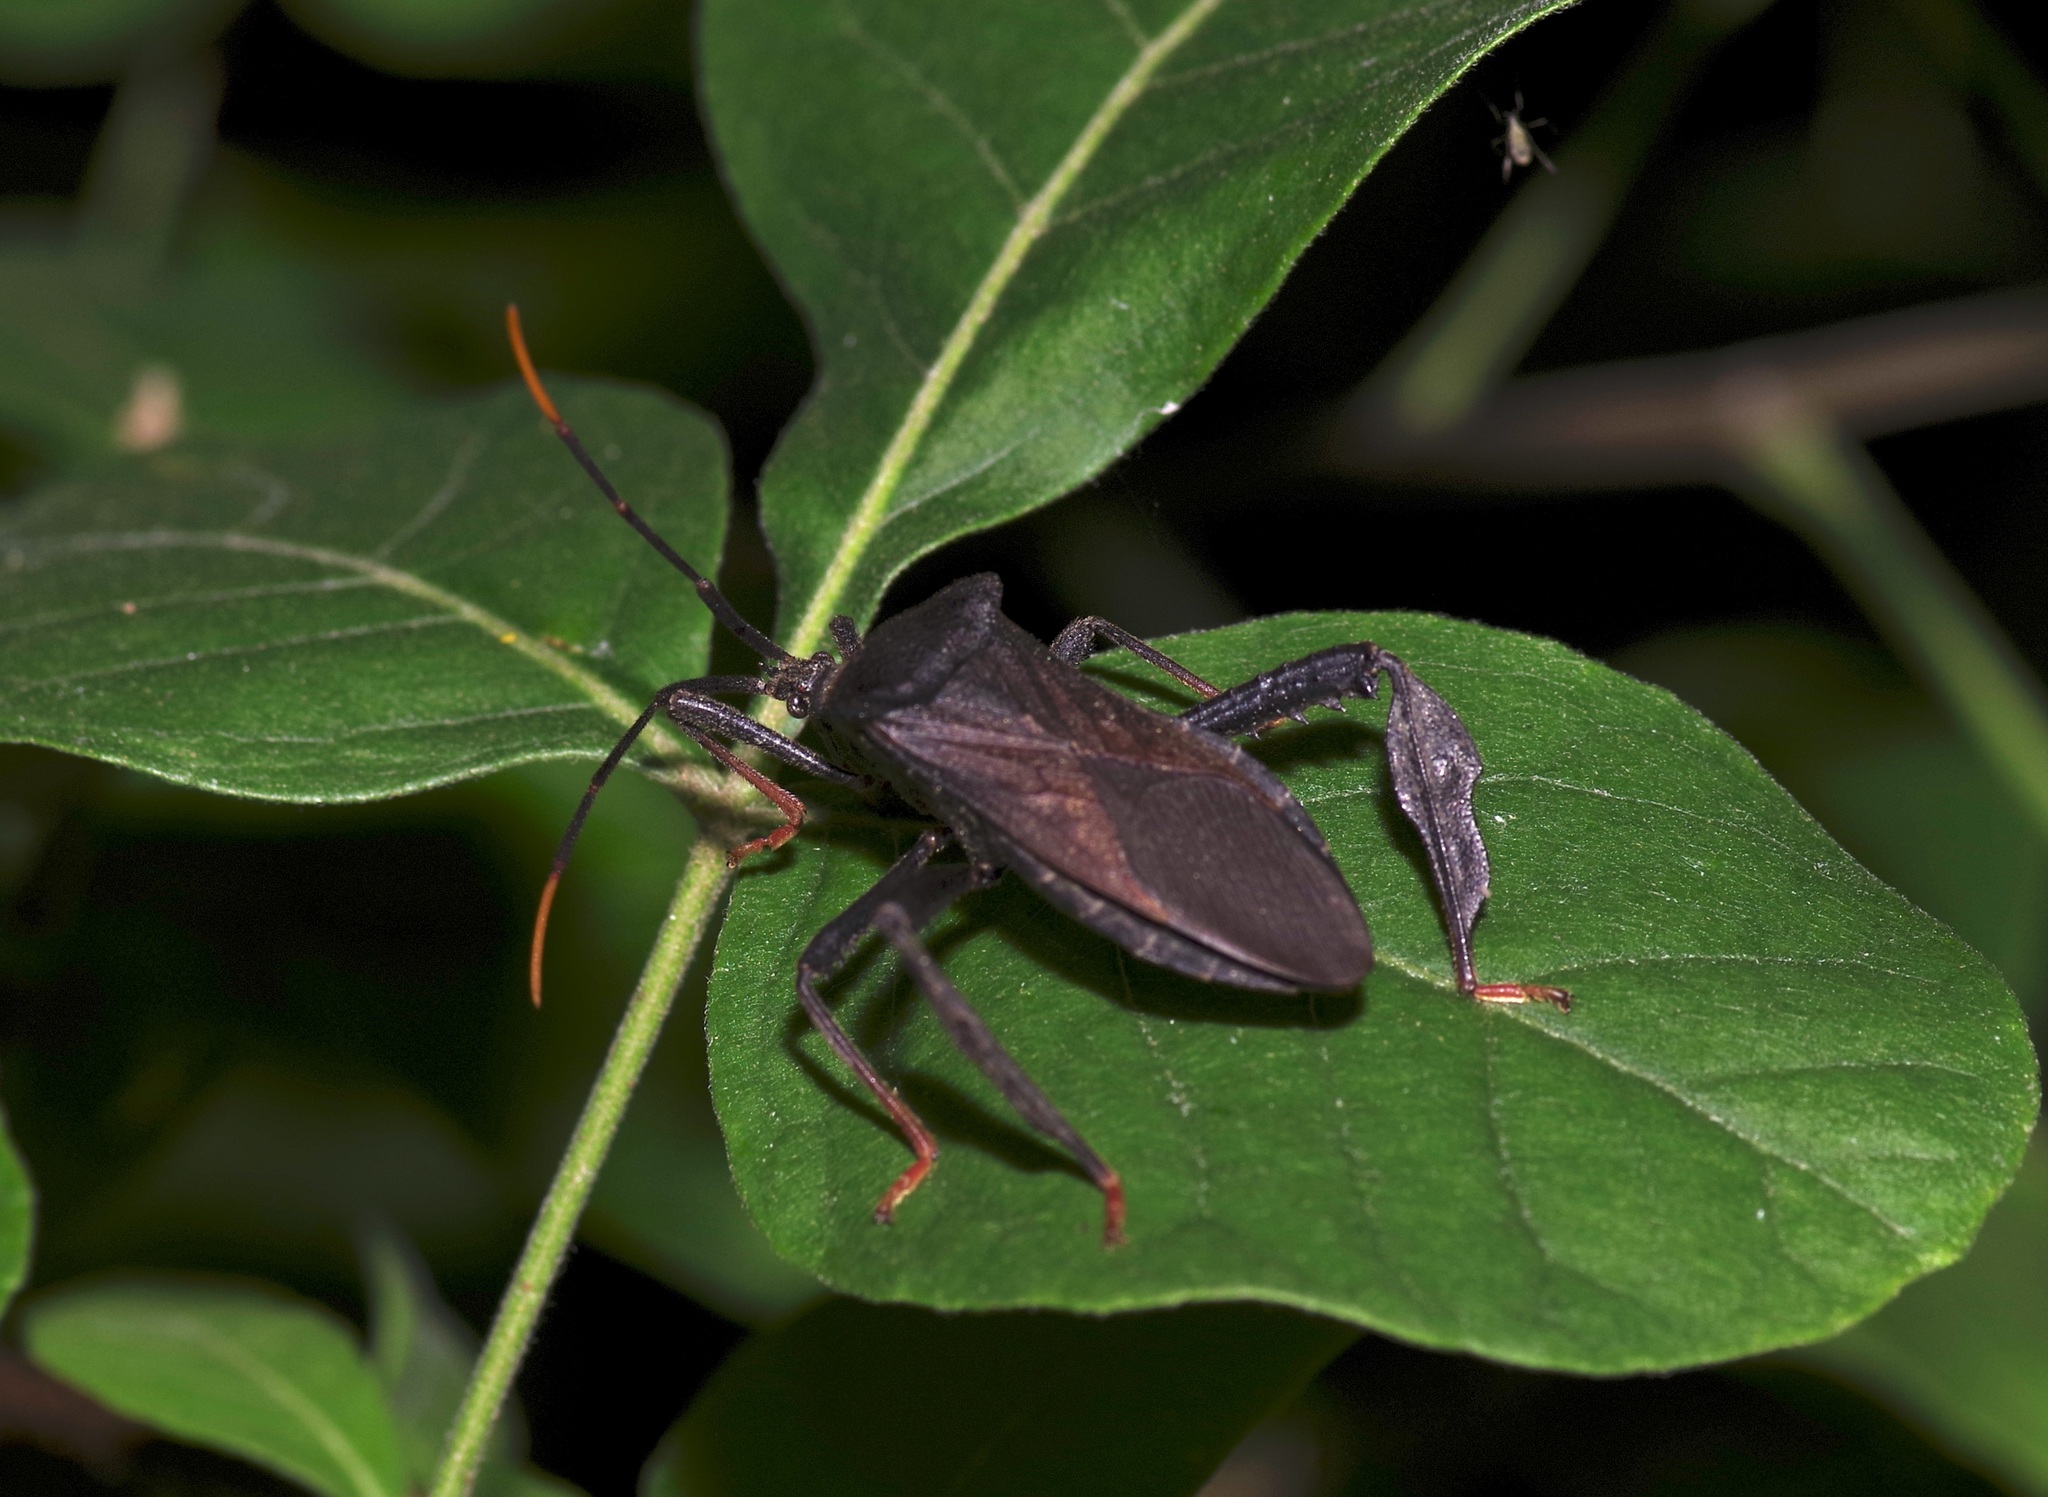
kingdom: Animalia
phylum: Arthropoda
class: Insecta
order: Hemiptera
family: Coreidae
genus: Acanthocephala
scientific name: Acanthocephala terminalis
